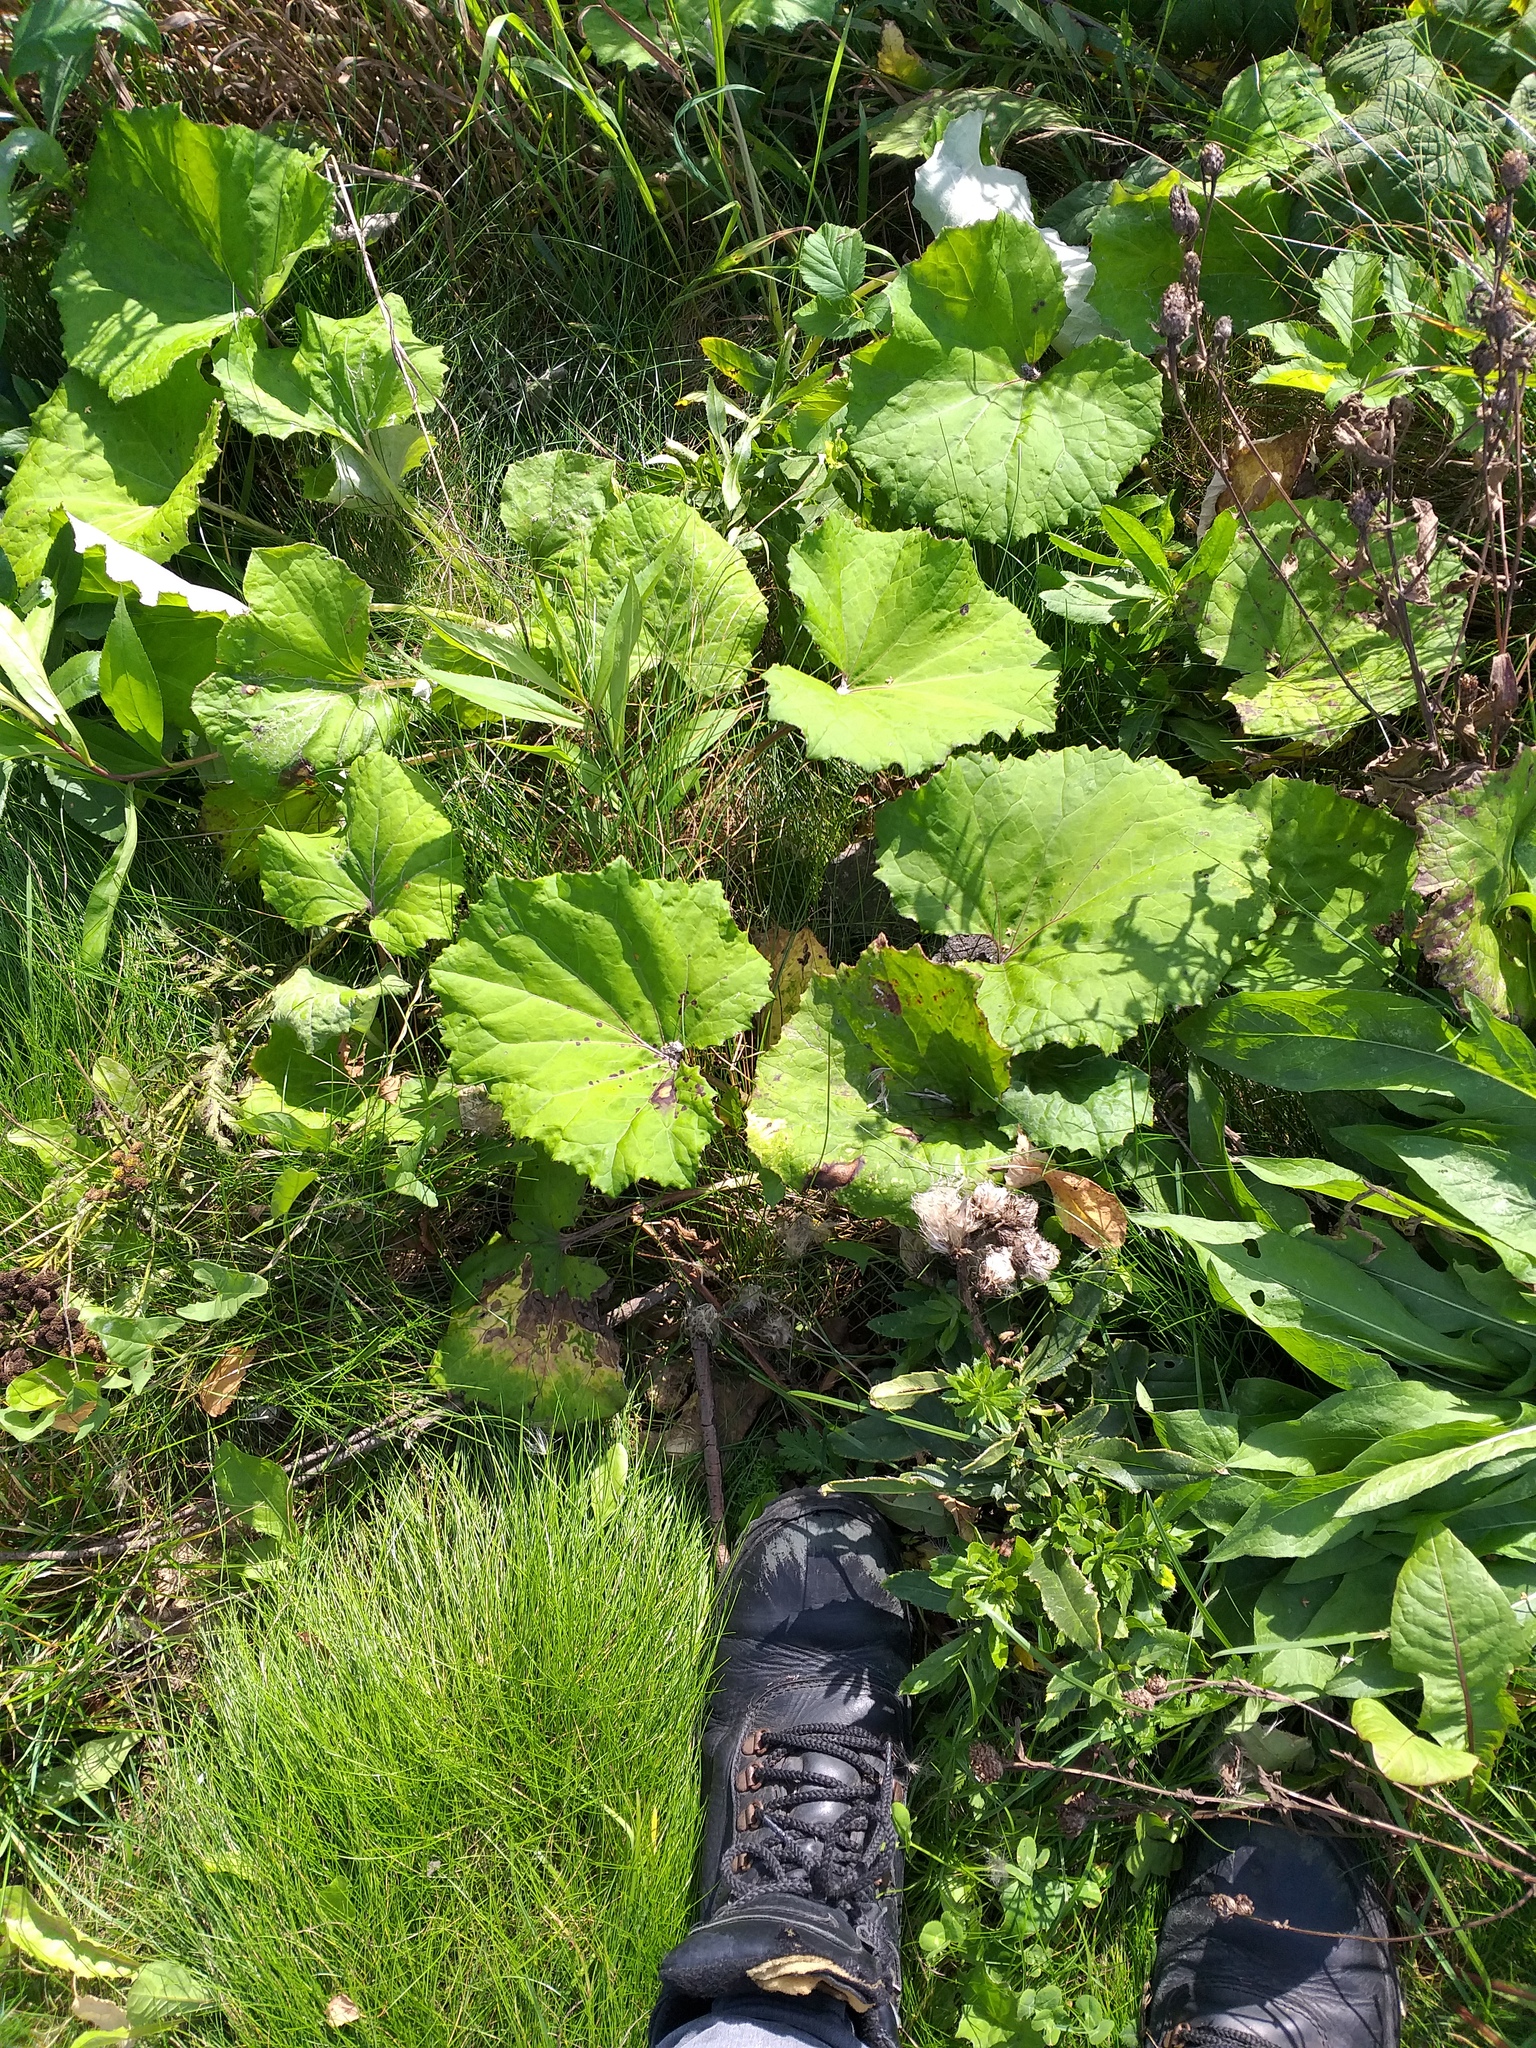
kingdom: Plantae
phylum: Tracheophyta
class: Magnoliopsida
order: Asterales
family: Asteraceae
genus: Tussilago
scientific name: Tussilago farfara
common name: Coltsfoot
